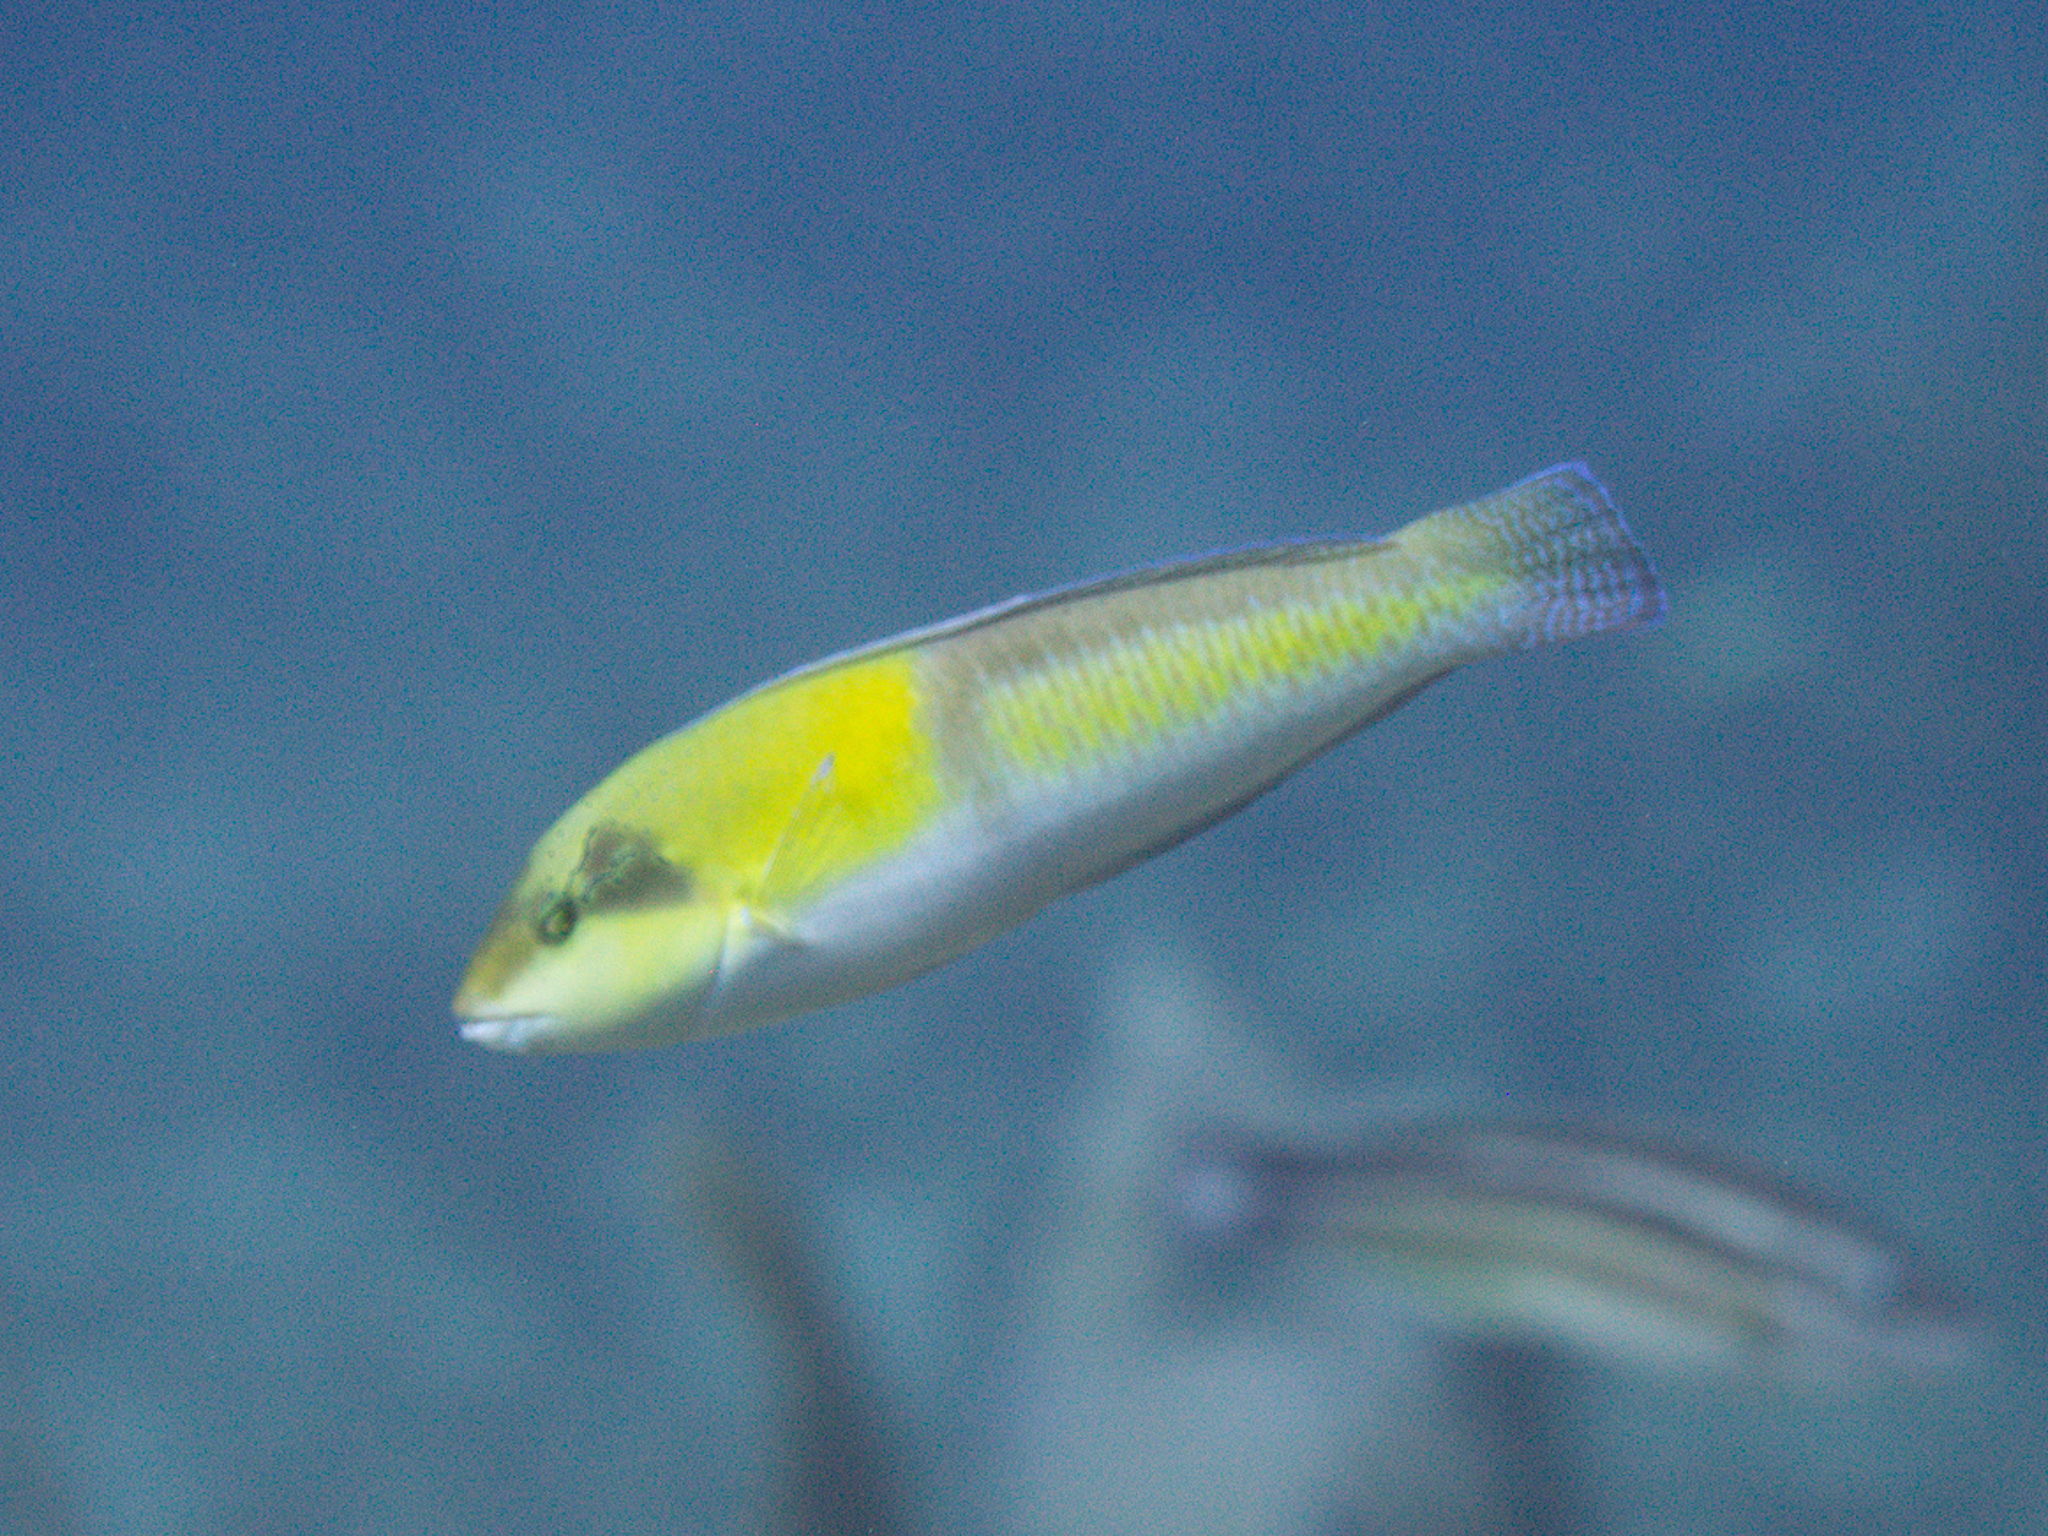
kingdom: Animalia
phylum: Chordata
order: Perciformes
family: Labridae
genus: Halichoeres
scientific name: Halichoeres garnoti
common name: Yellowhead wrasse
